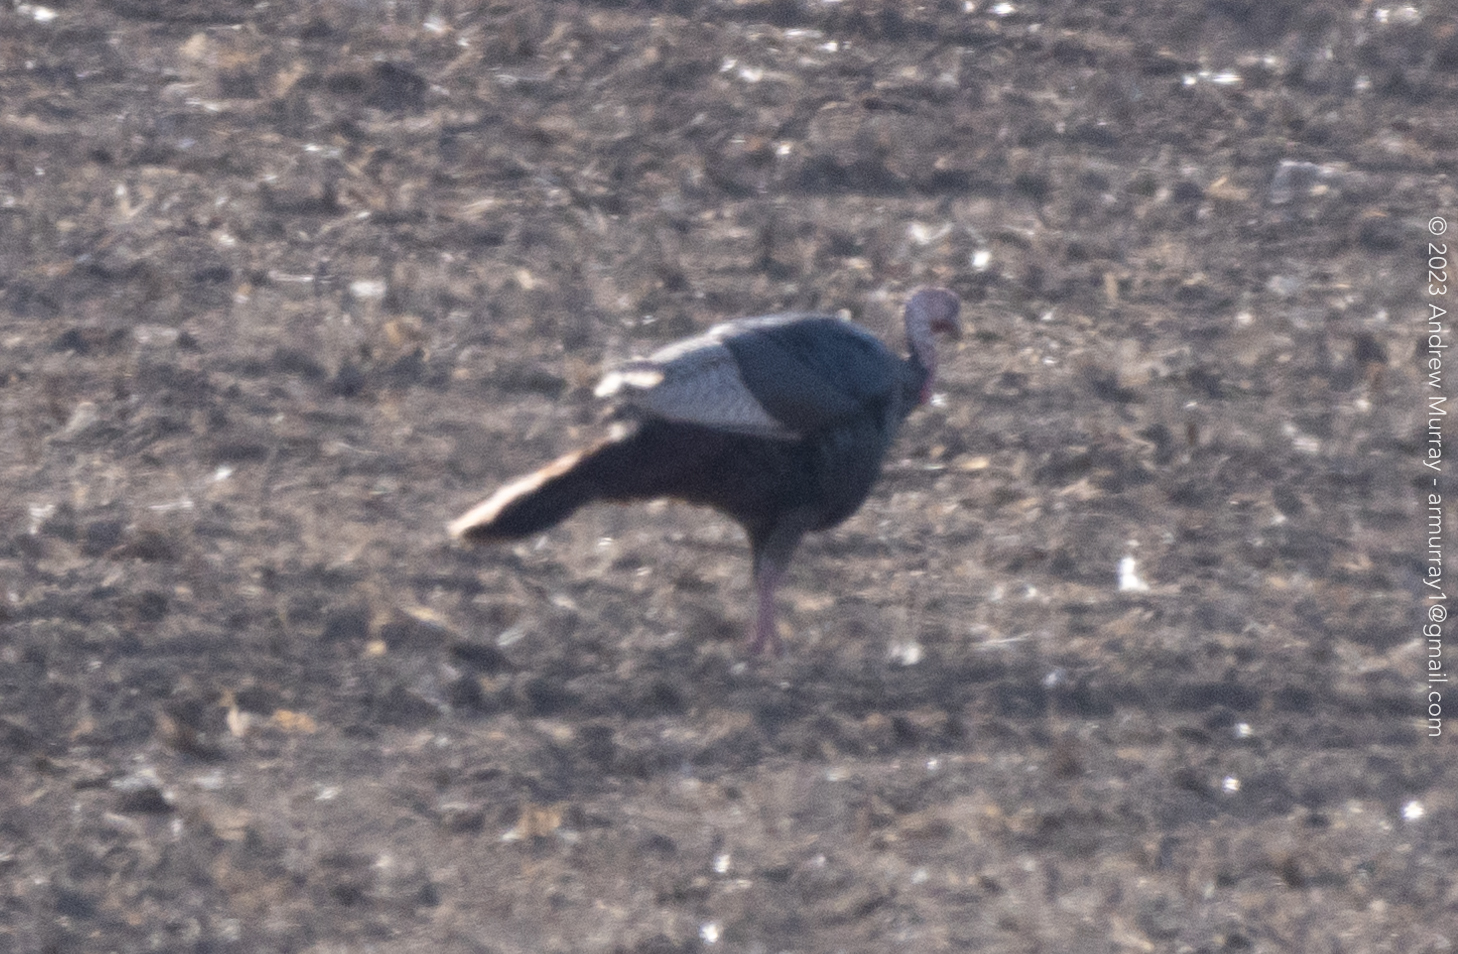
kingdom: Animalia
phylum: Chordata
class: Aves
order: Galliformes
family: Phasianidae
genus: Meleagris
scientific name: Meleagris gallopavo
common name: Wild turkey
